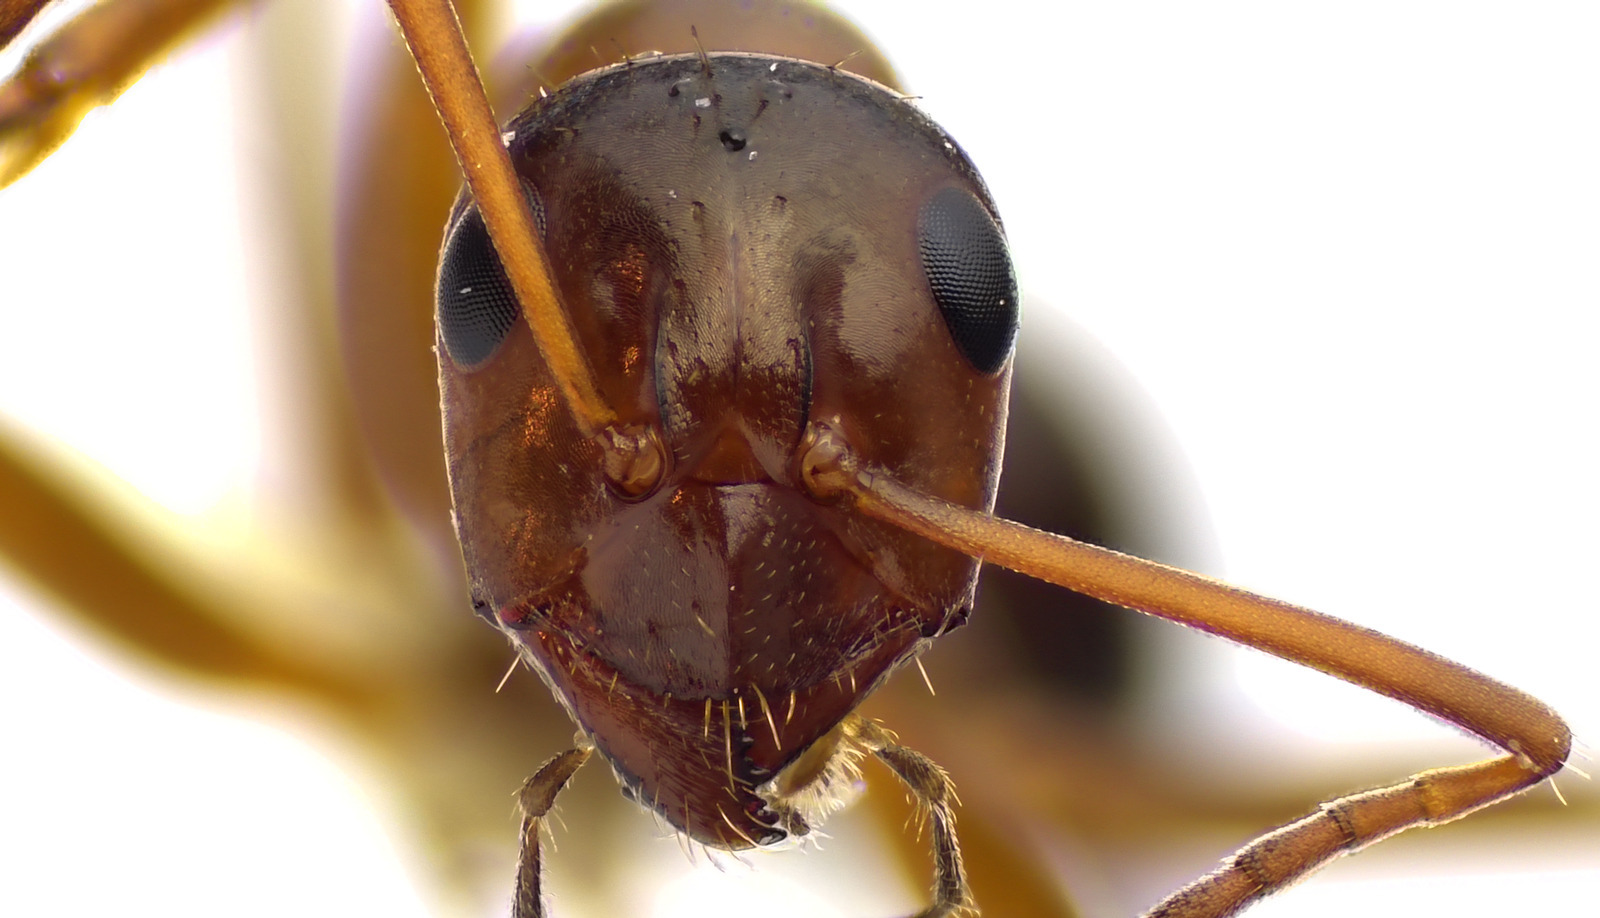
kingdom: Animalia
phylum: Arthropoda
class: Insecta
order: Hymenoptera
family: Formicidae
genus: Formica
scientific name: Formica pallidefulva
